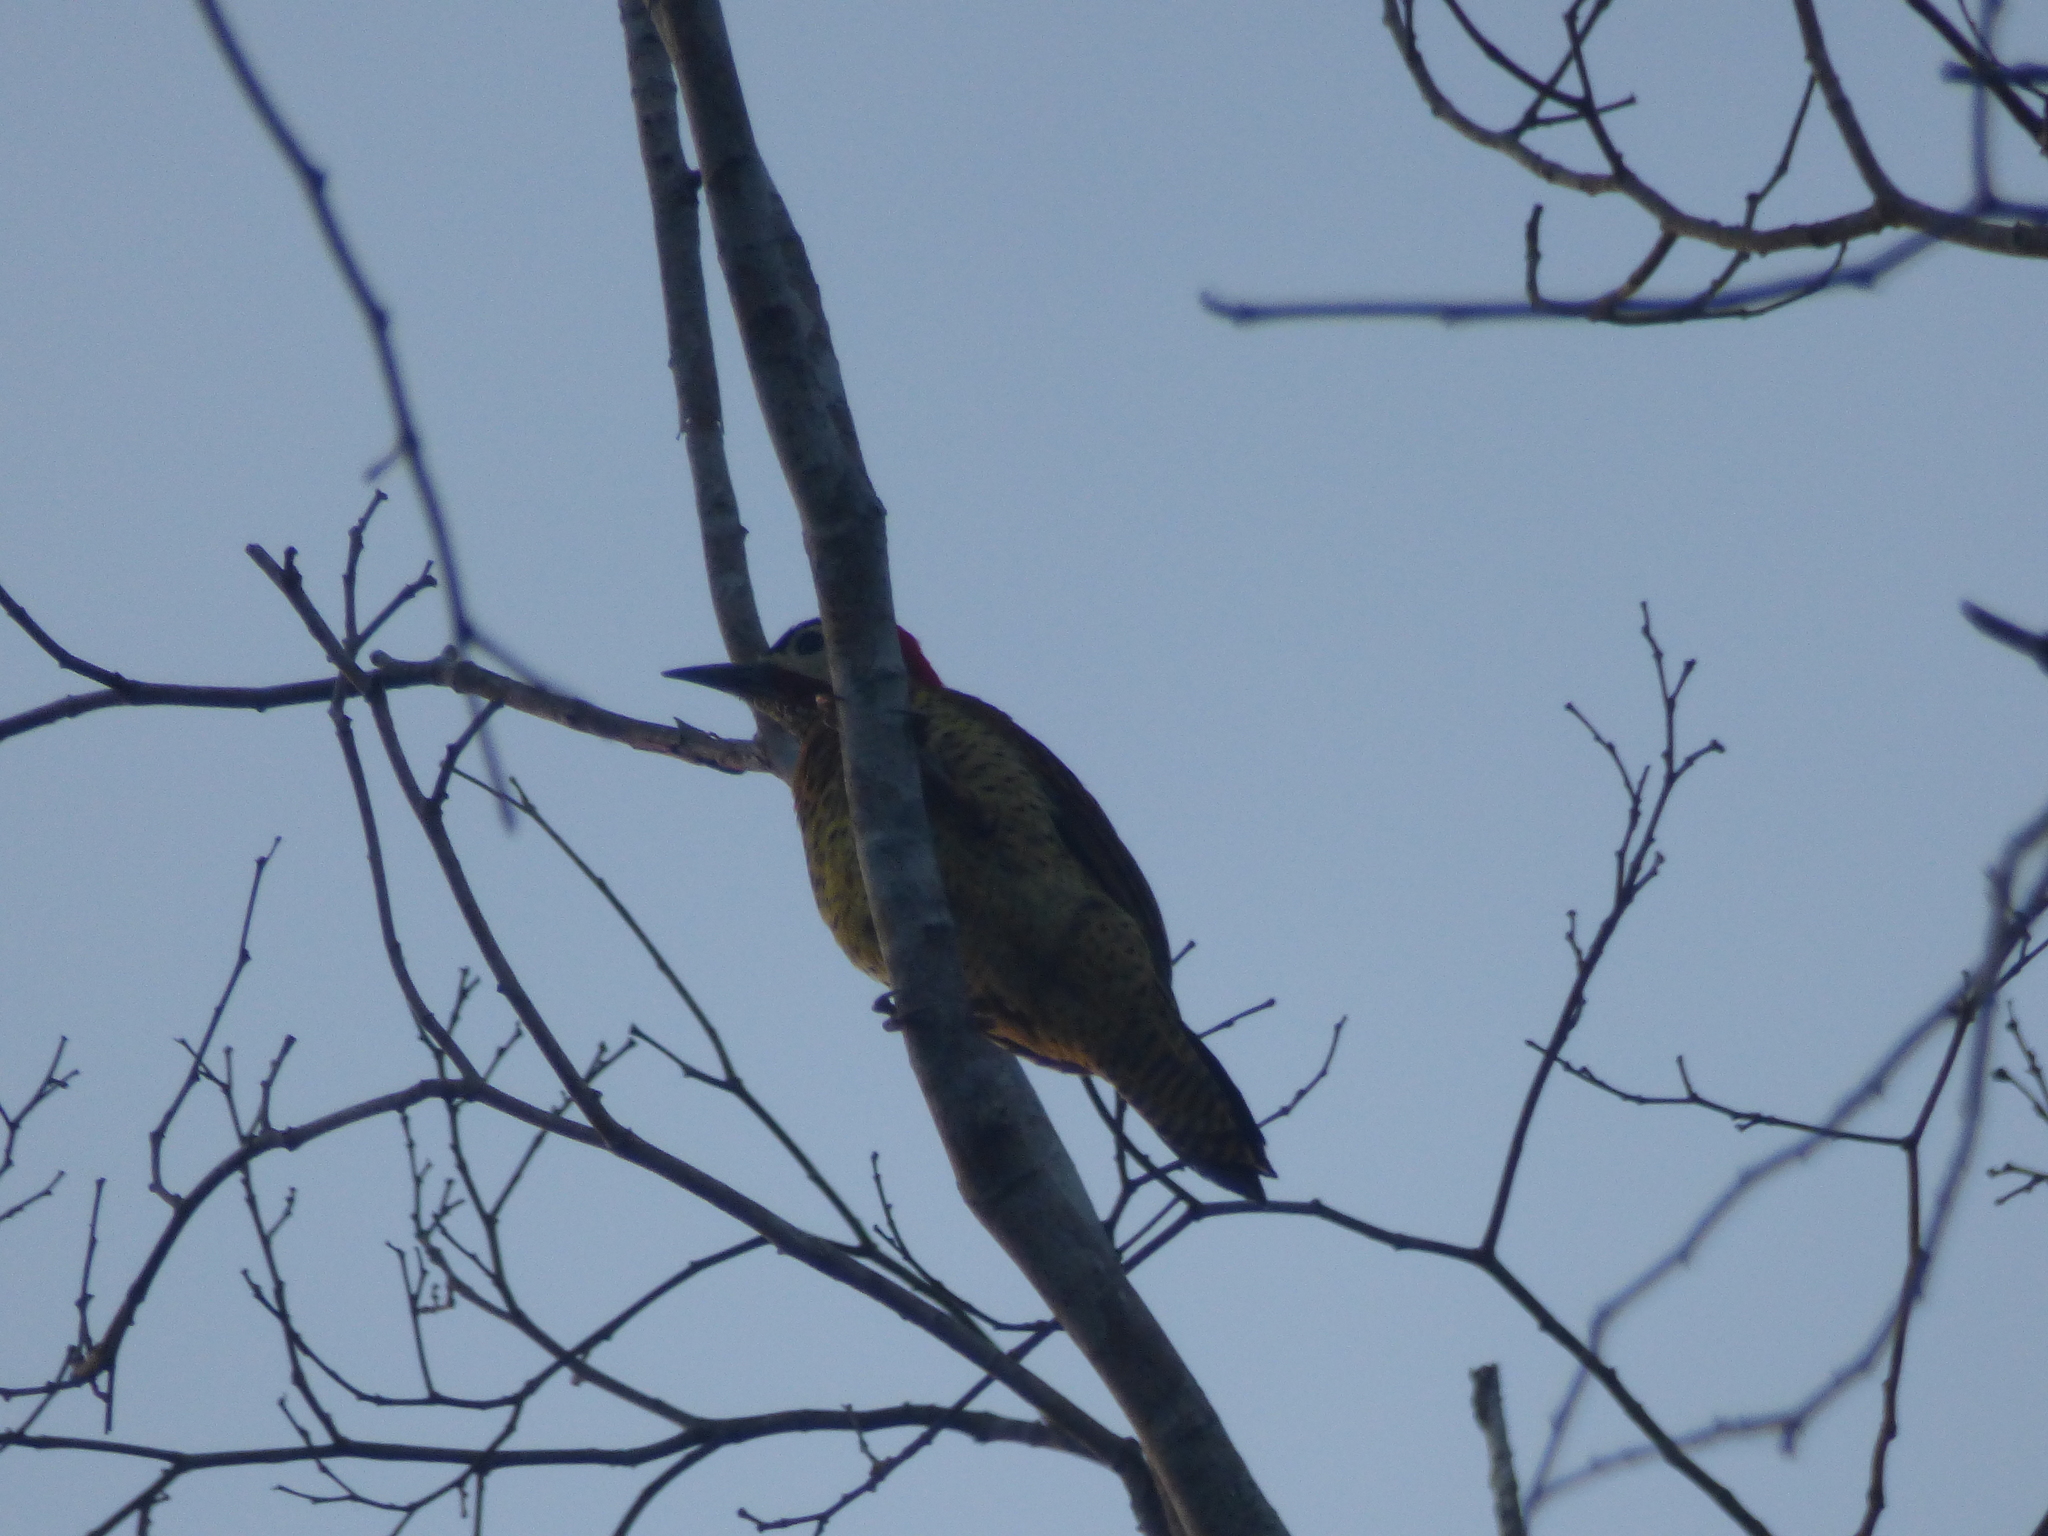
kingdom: Animalia
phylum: Chordata
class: Aves
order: Piciformes
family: Picidae
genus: Colaptes
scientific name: Colaptes punctigula
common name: Spot-breasted woodpecker
